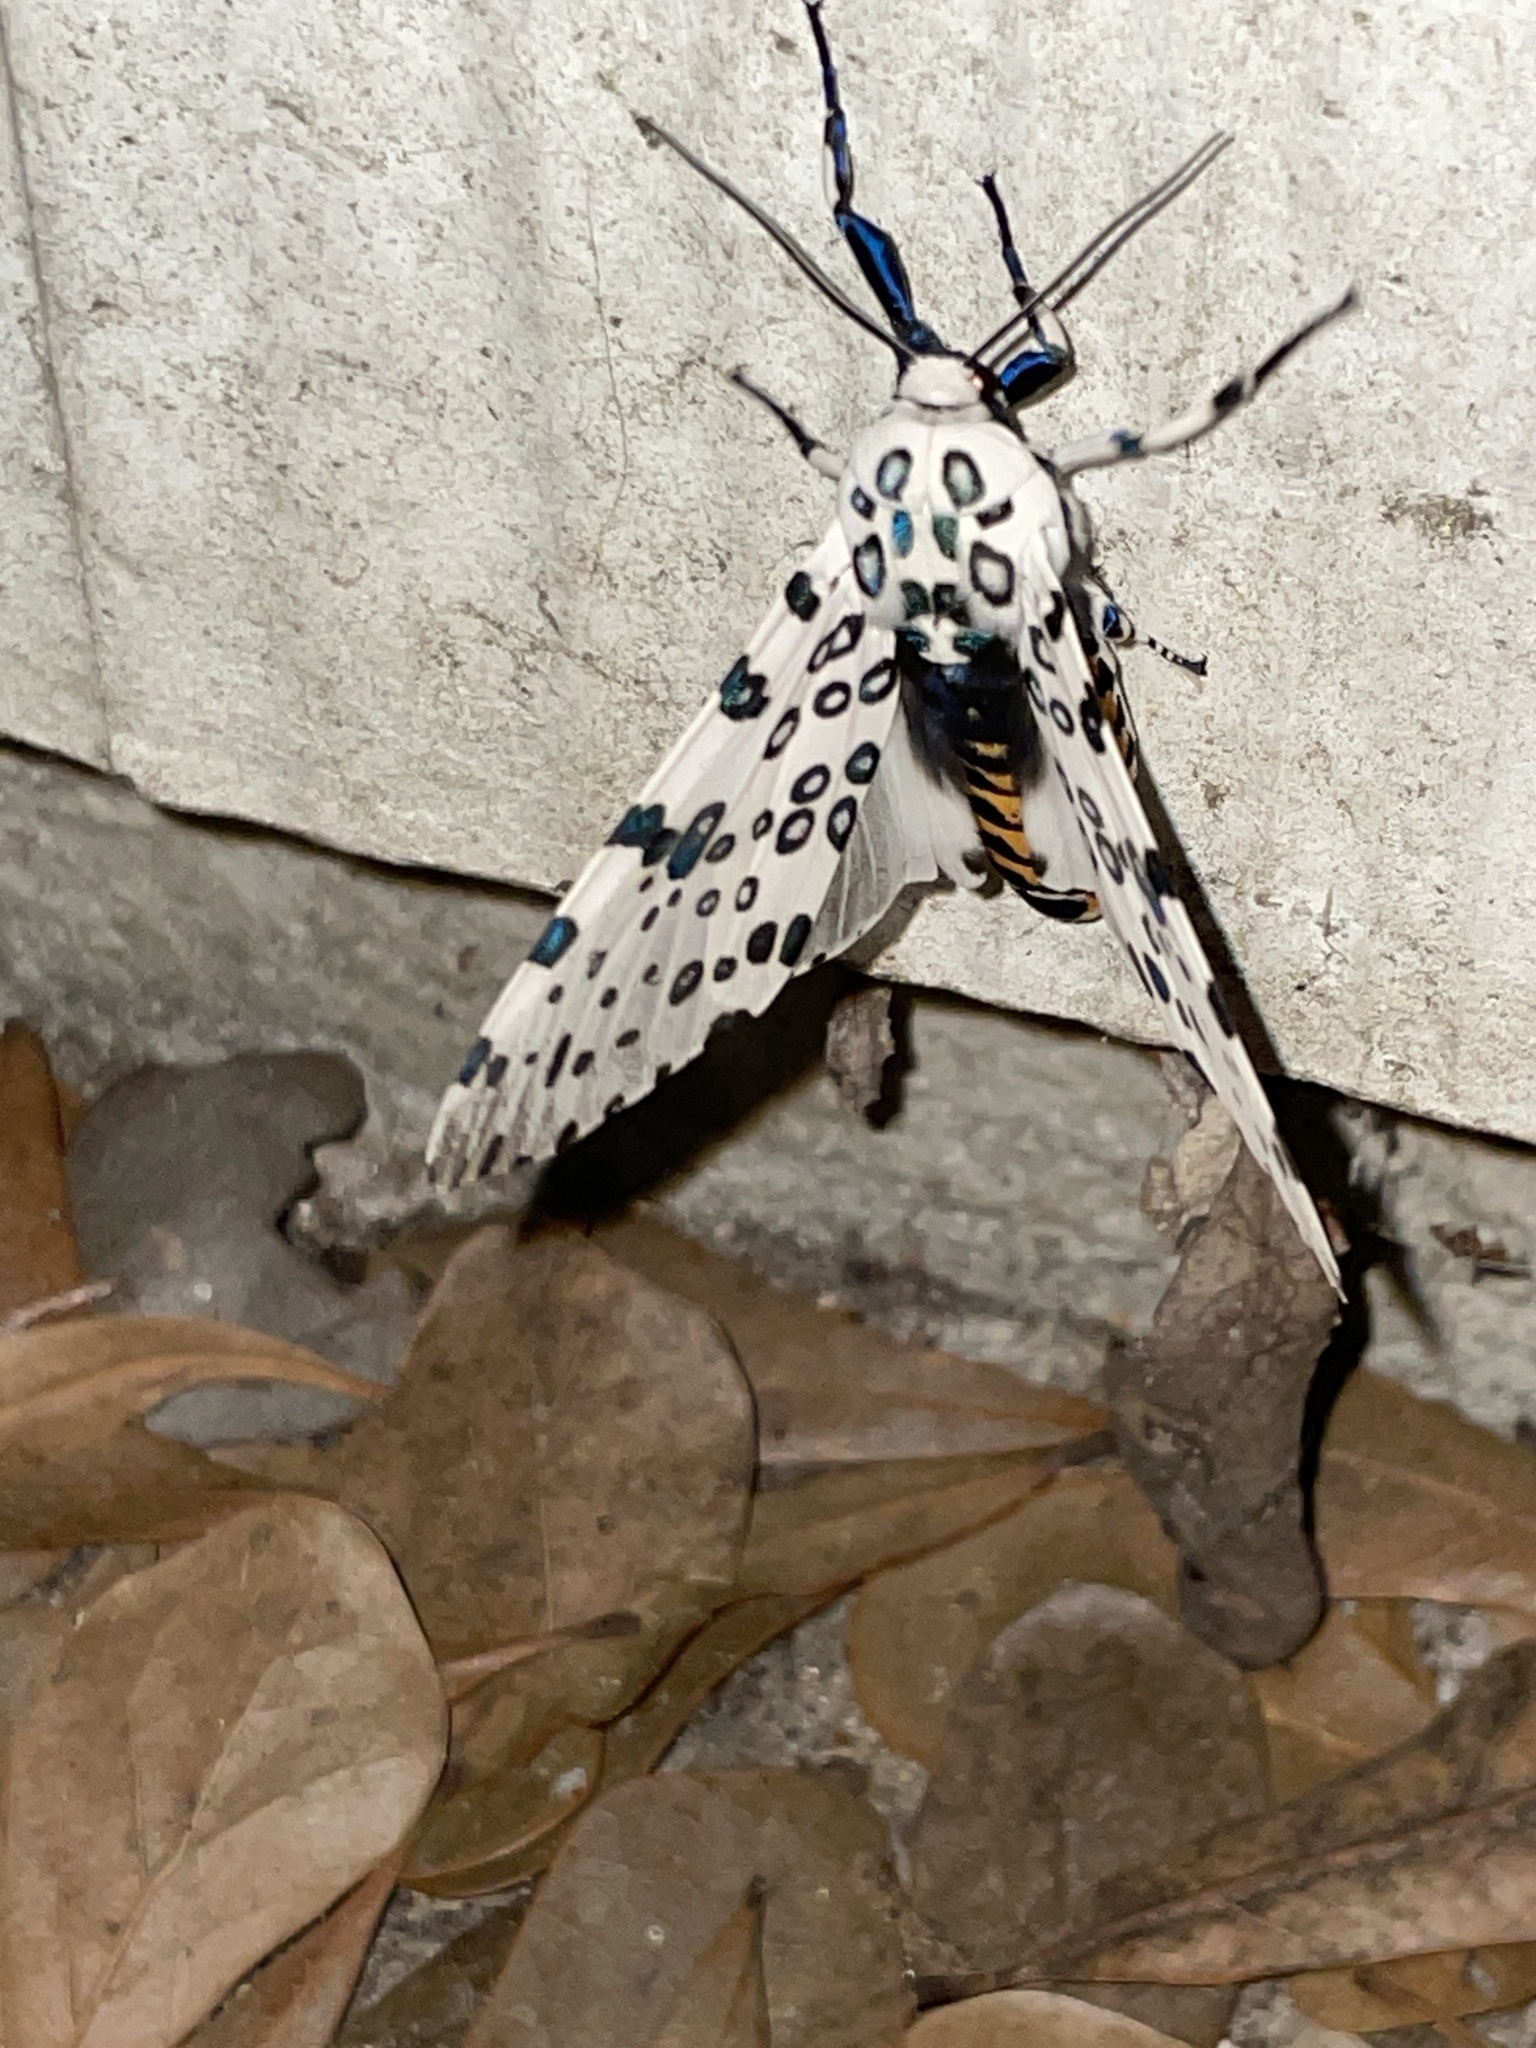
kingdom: Animalia
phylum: Arthropoda
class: Insecta
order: Lepidoptera
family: Erebidae
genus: Hypercompe
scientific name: Hypercompe scribonia
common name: Giant leopard moth
